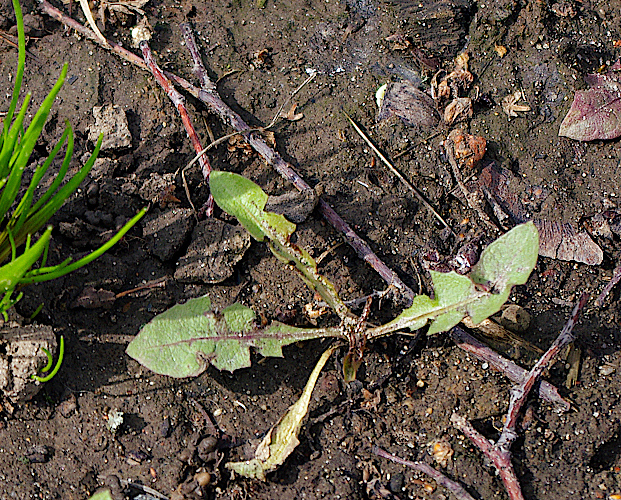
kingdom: Plantae
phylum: Tracheophyta
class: Magnoliopsida
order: Asterales
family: Asteraceae
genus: Taraxacum
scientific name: Taraxacum officinale
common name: Common dandelion
